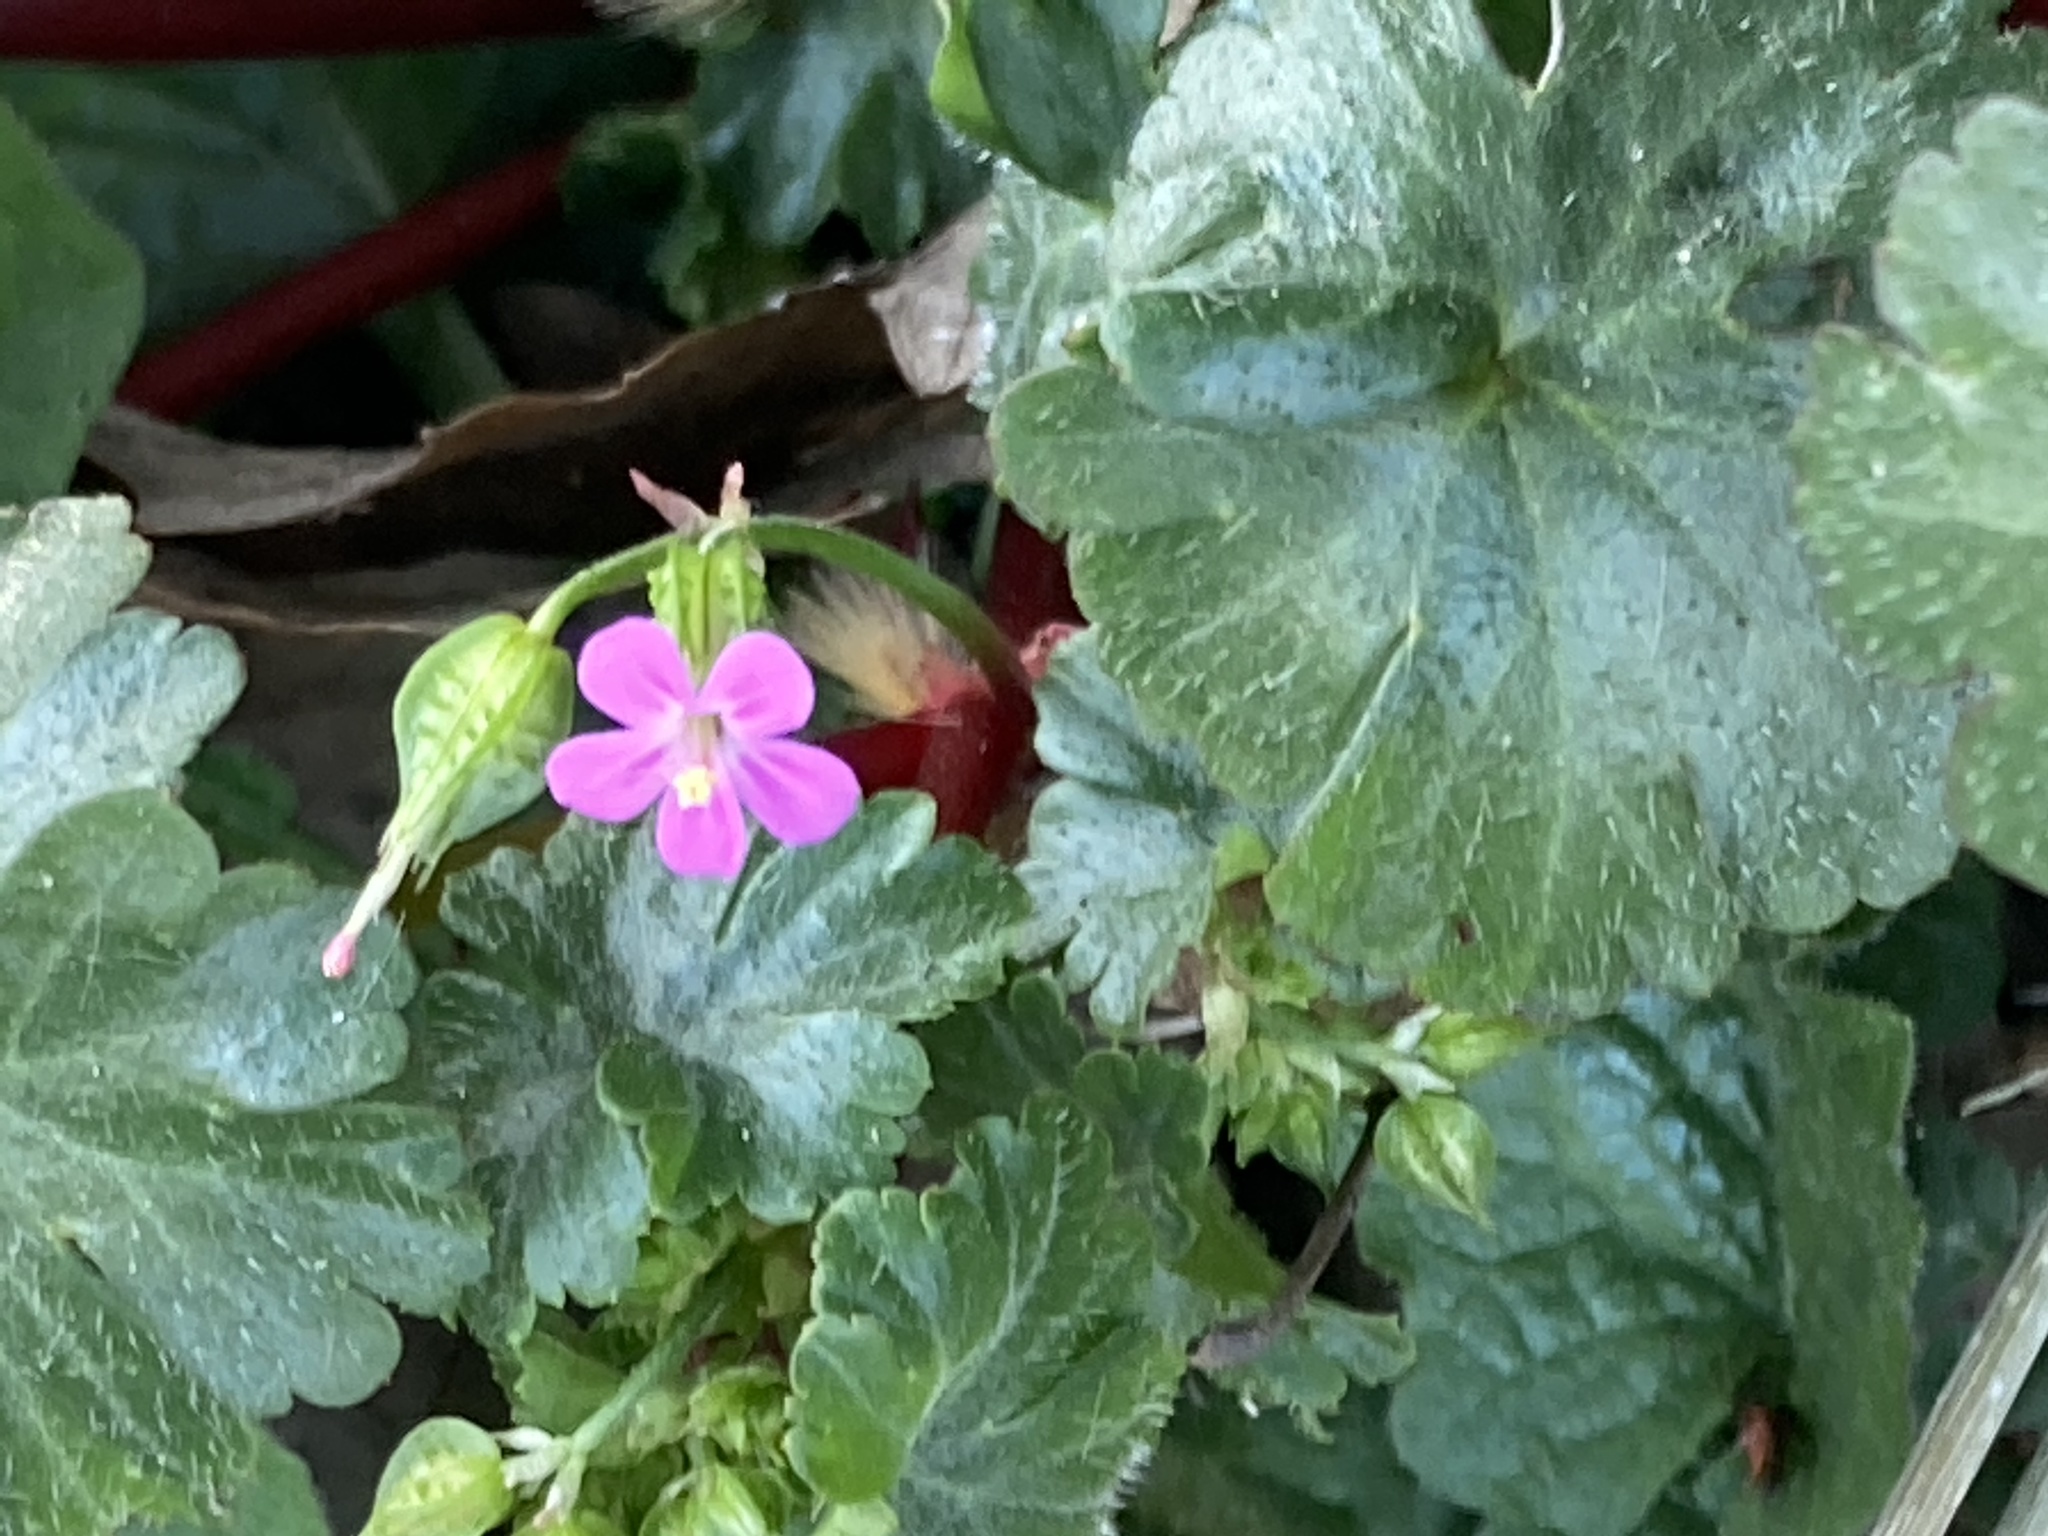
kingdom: Plantae
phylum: Tracheophyta
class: Magnoliopsida
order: Geraniales
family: Geraniaceae
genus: Geranium
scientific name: Geranium lucidum
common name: Shining crane's-bill
